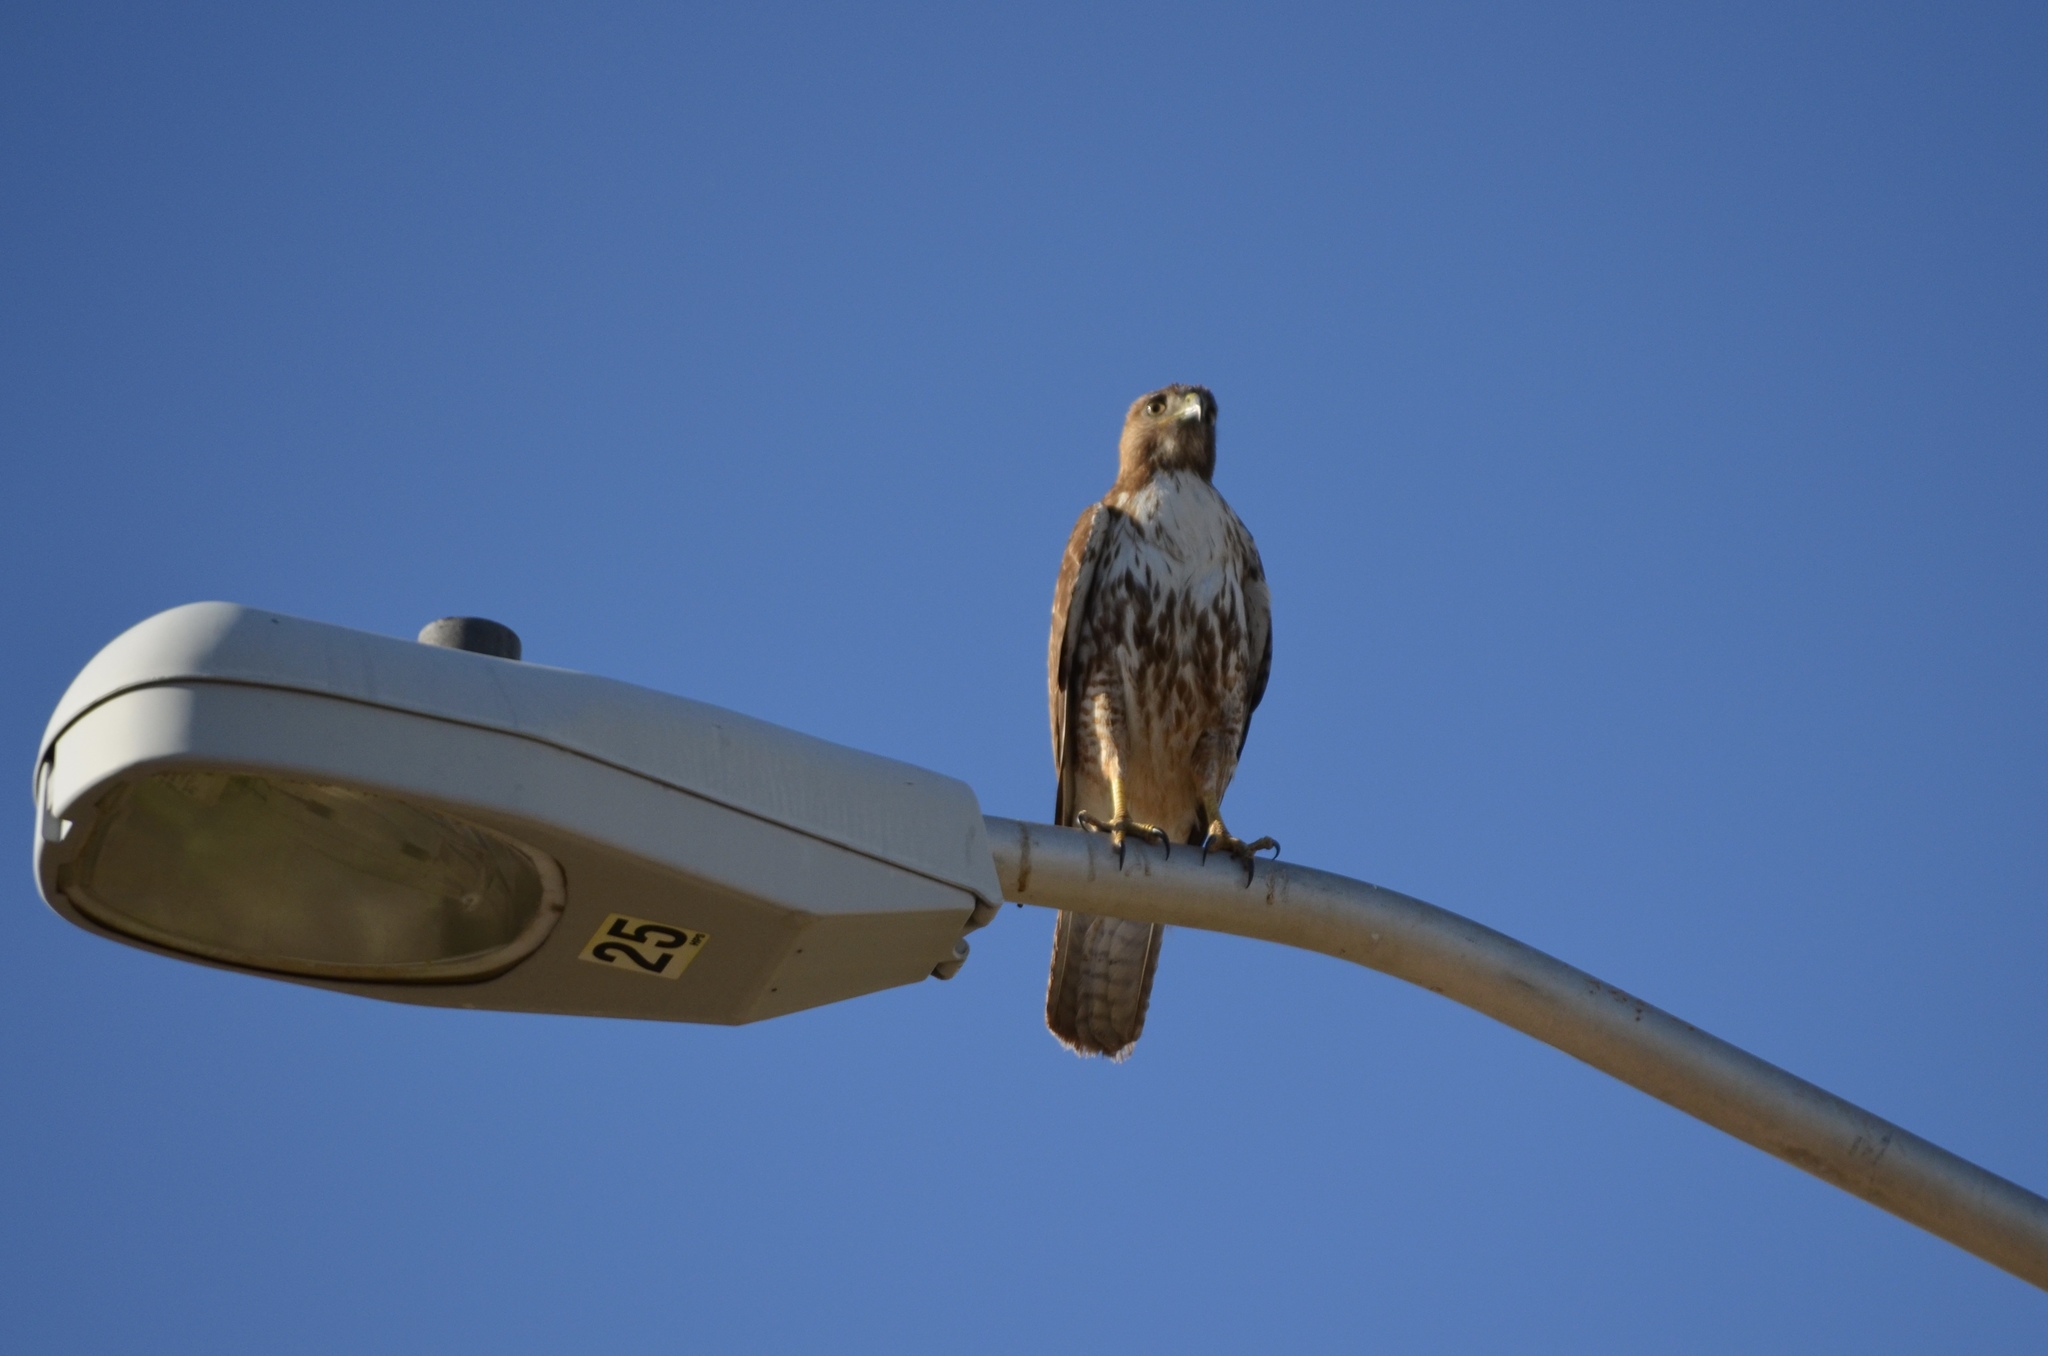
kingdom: Animalia
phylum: Chordata
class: Aves
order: Accipitriformes
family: Accipitridae
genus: Buteo
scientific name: Buteo jamaicensis
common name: Red-tailed hawk
